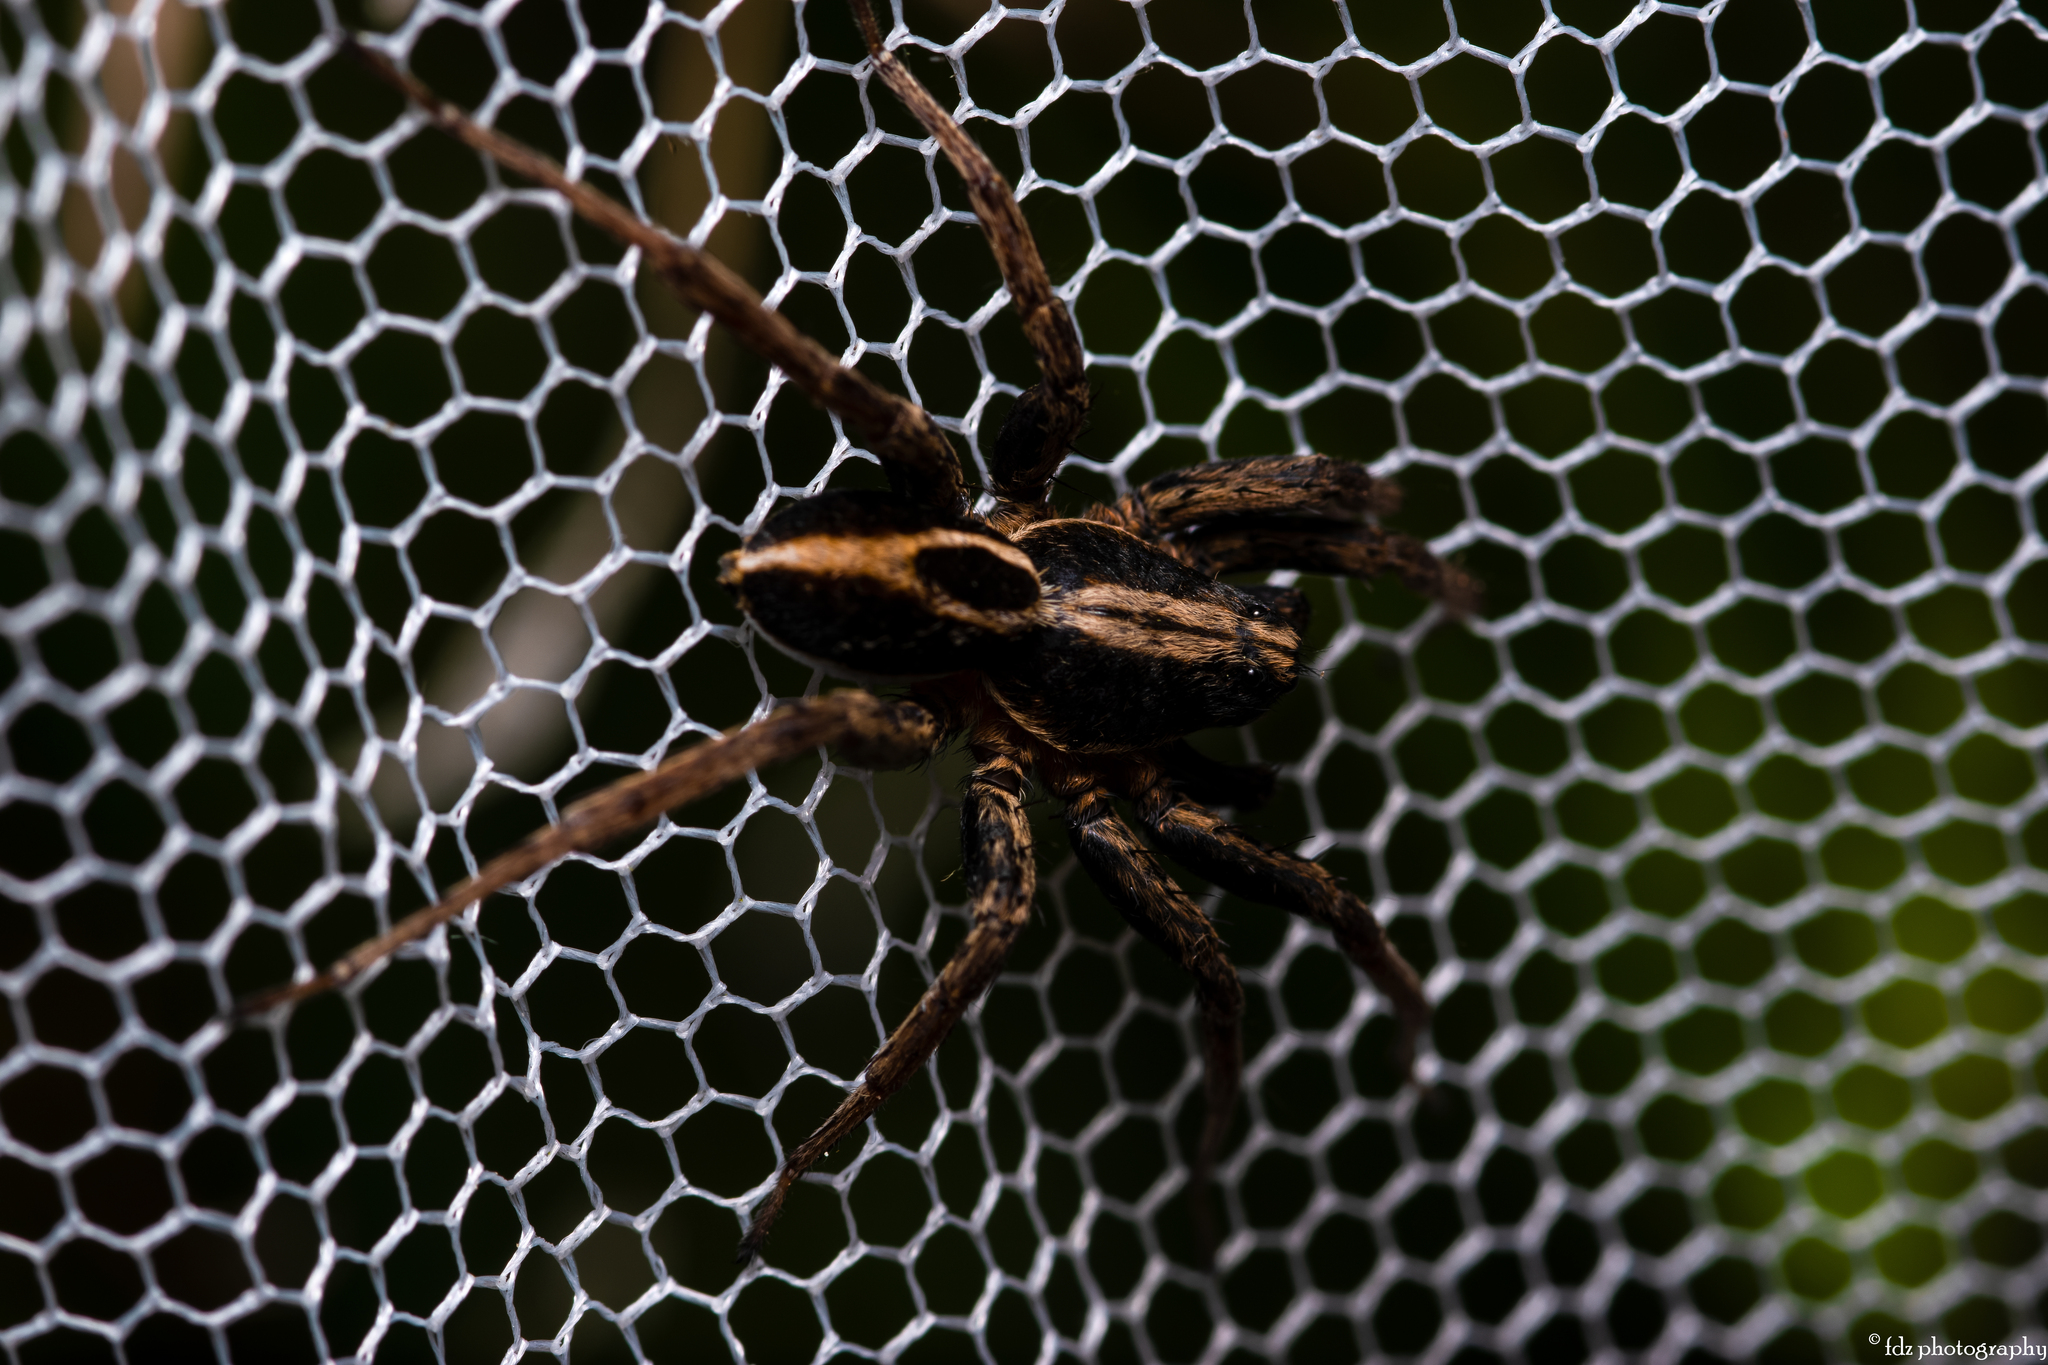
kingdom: Animalia
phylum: Arthropoda
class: Arachnida
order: Araneae
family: Lycosidae
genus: Alopecosa
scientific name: Alopecosa albofasciata
